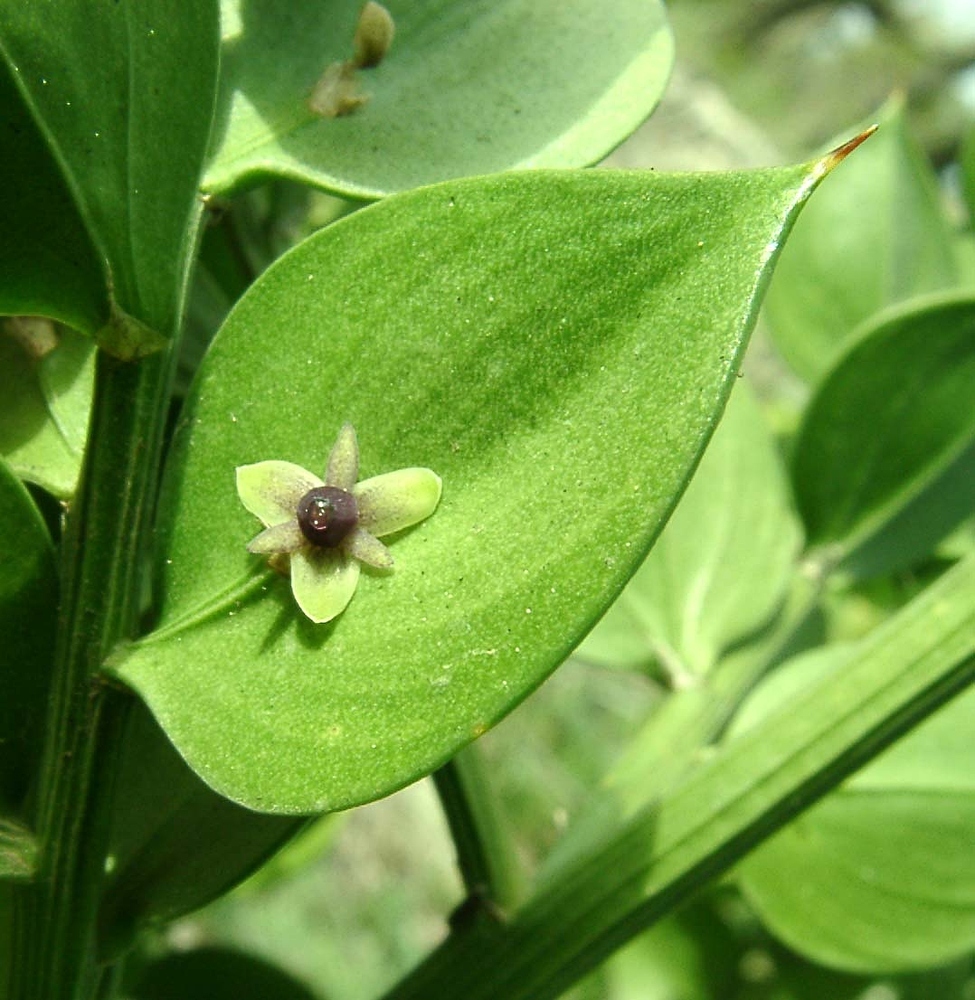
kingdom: Plantae
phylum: Tracheophyta
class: Liliopsida
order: Asparagales
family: Asparagaceae
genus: Ruscus
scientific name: Ruscus aculeatus
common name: Butcher's-broom
